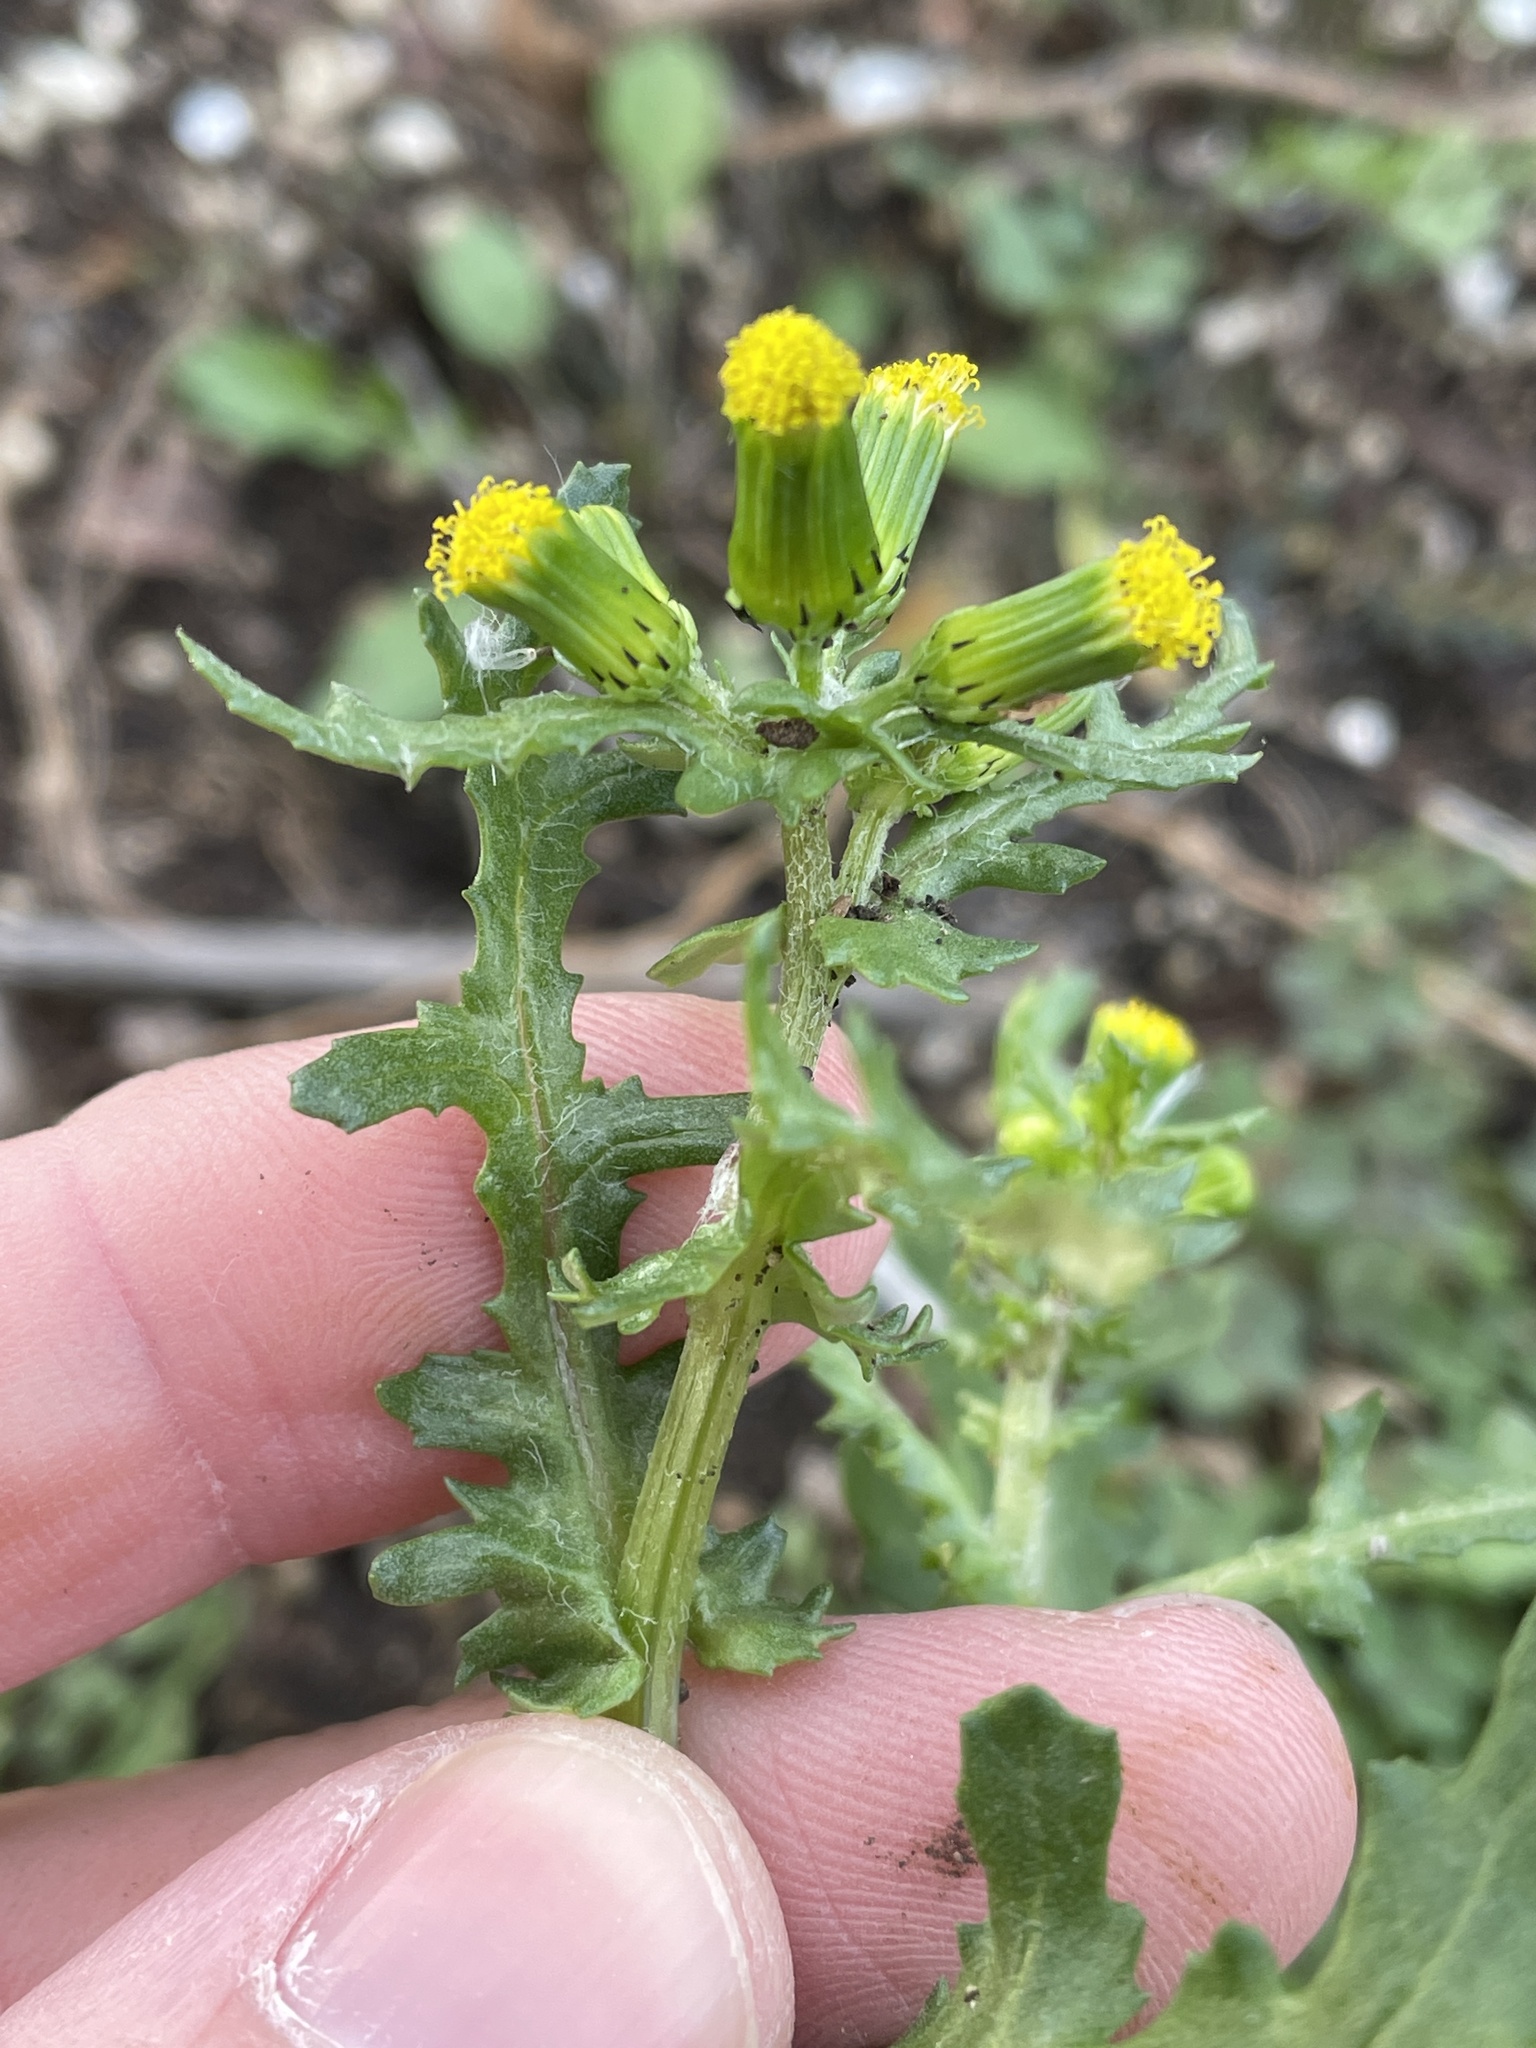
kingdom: Plantae
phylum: Tracheophyta
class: Magnoliopsida
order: Asterales
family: Asteraceae
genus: Senecio
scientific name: Senecio vulgaris
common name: Old-man-in-the-spring
